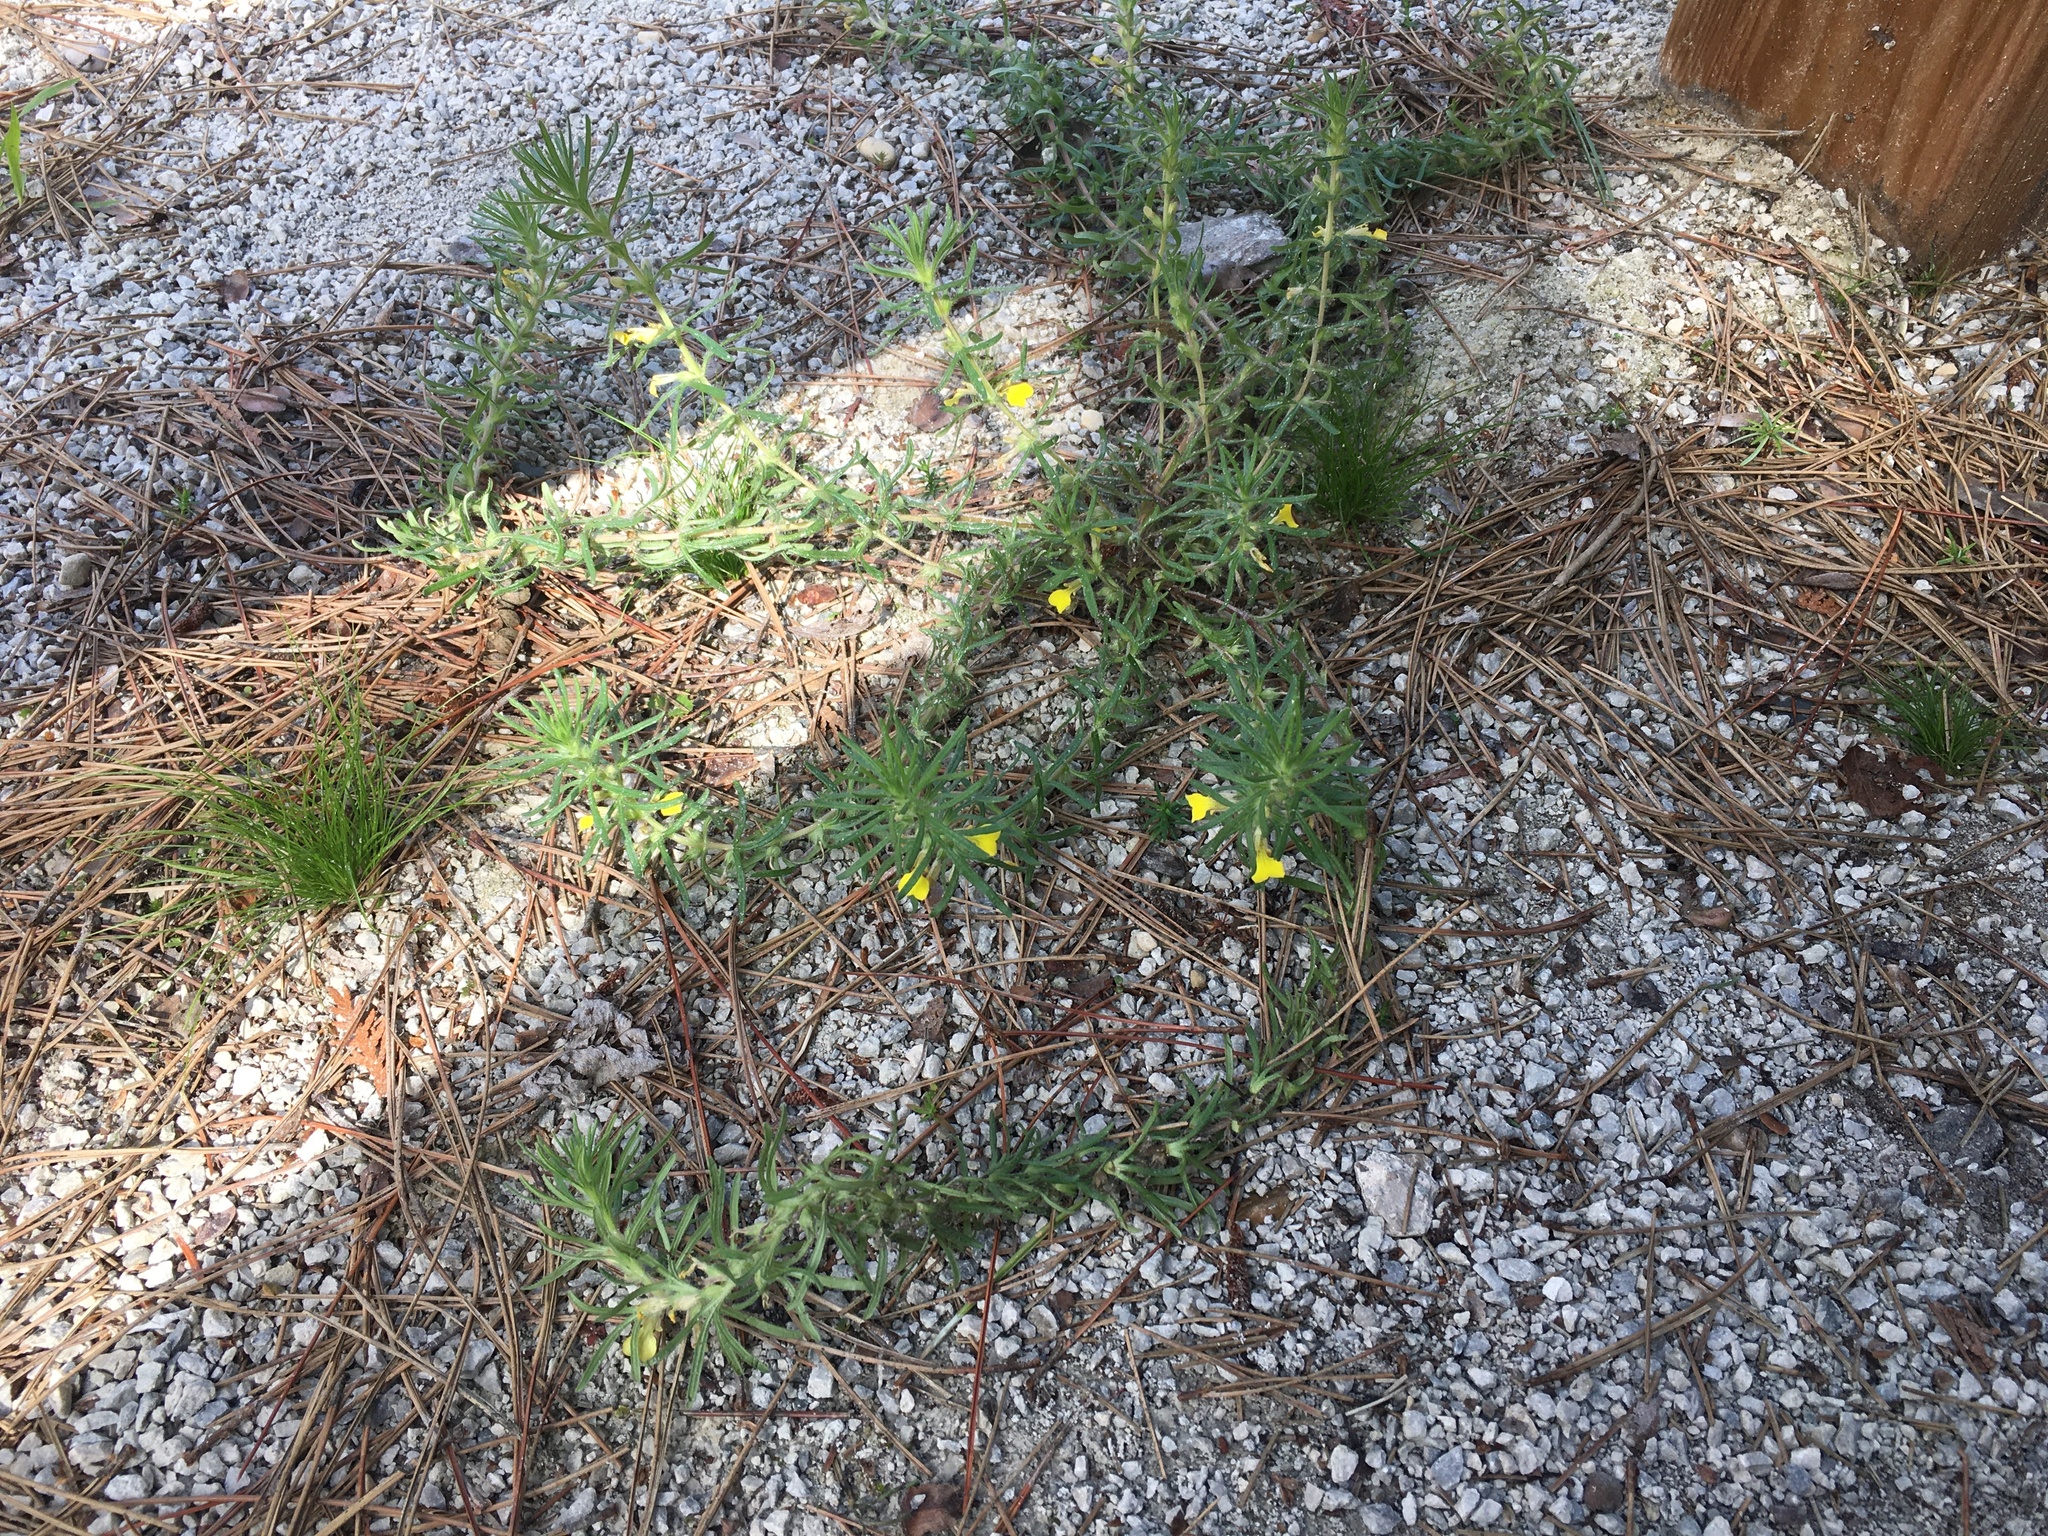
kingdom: Plantae
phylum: Tracheophyta
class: Magnoliopsida
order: Lamiales
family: Lamiaceae
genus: Ajuga
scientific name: Ajuga chamaepitys
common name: Ground-pine
